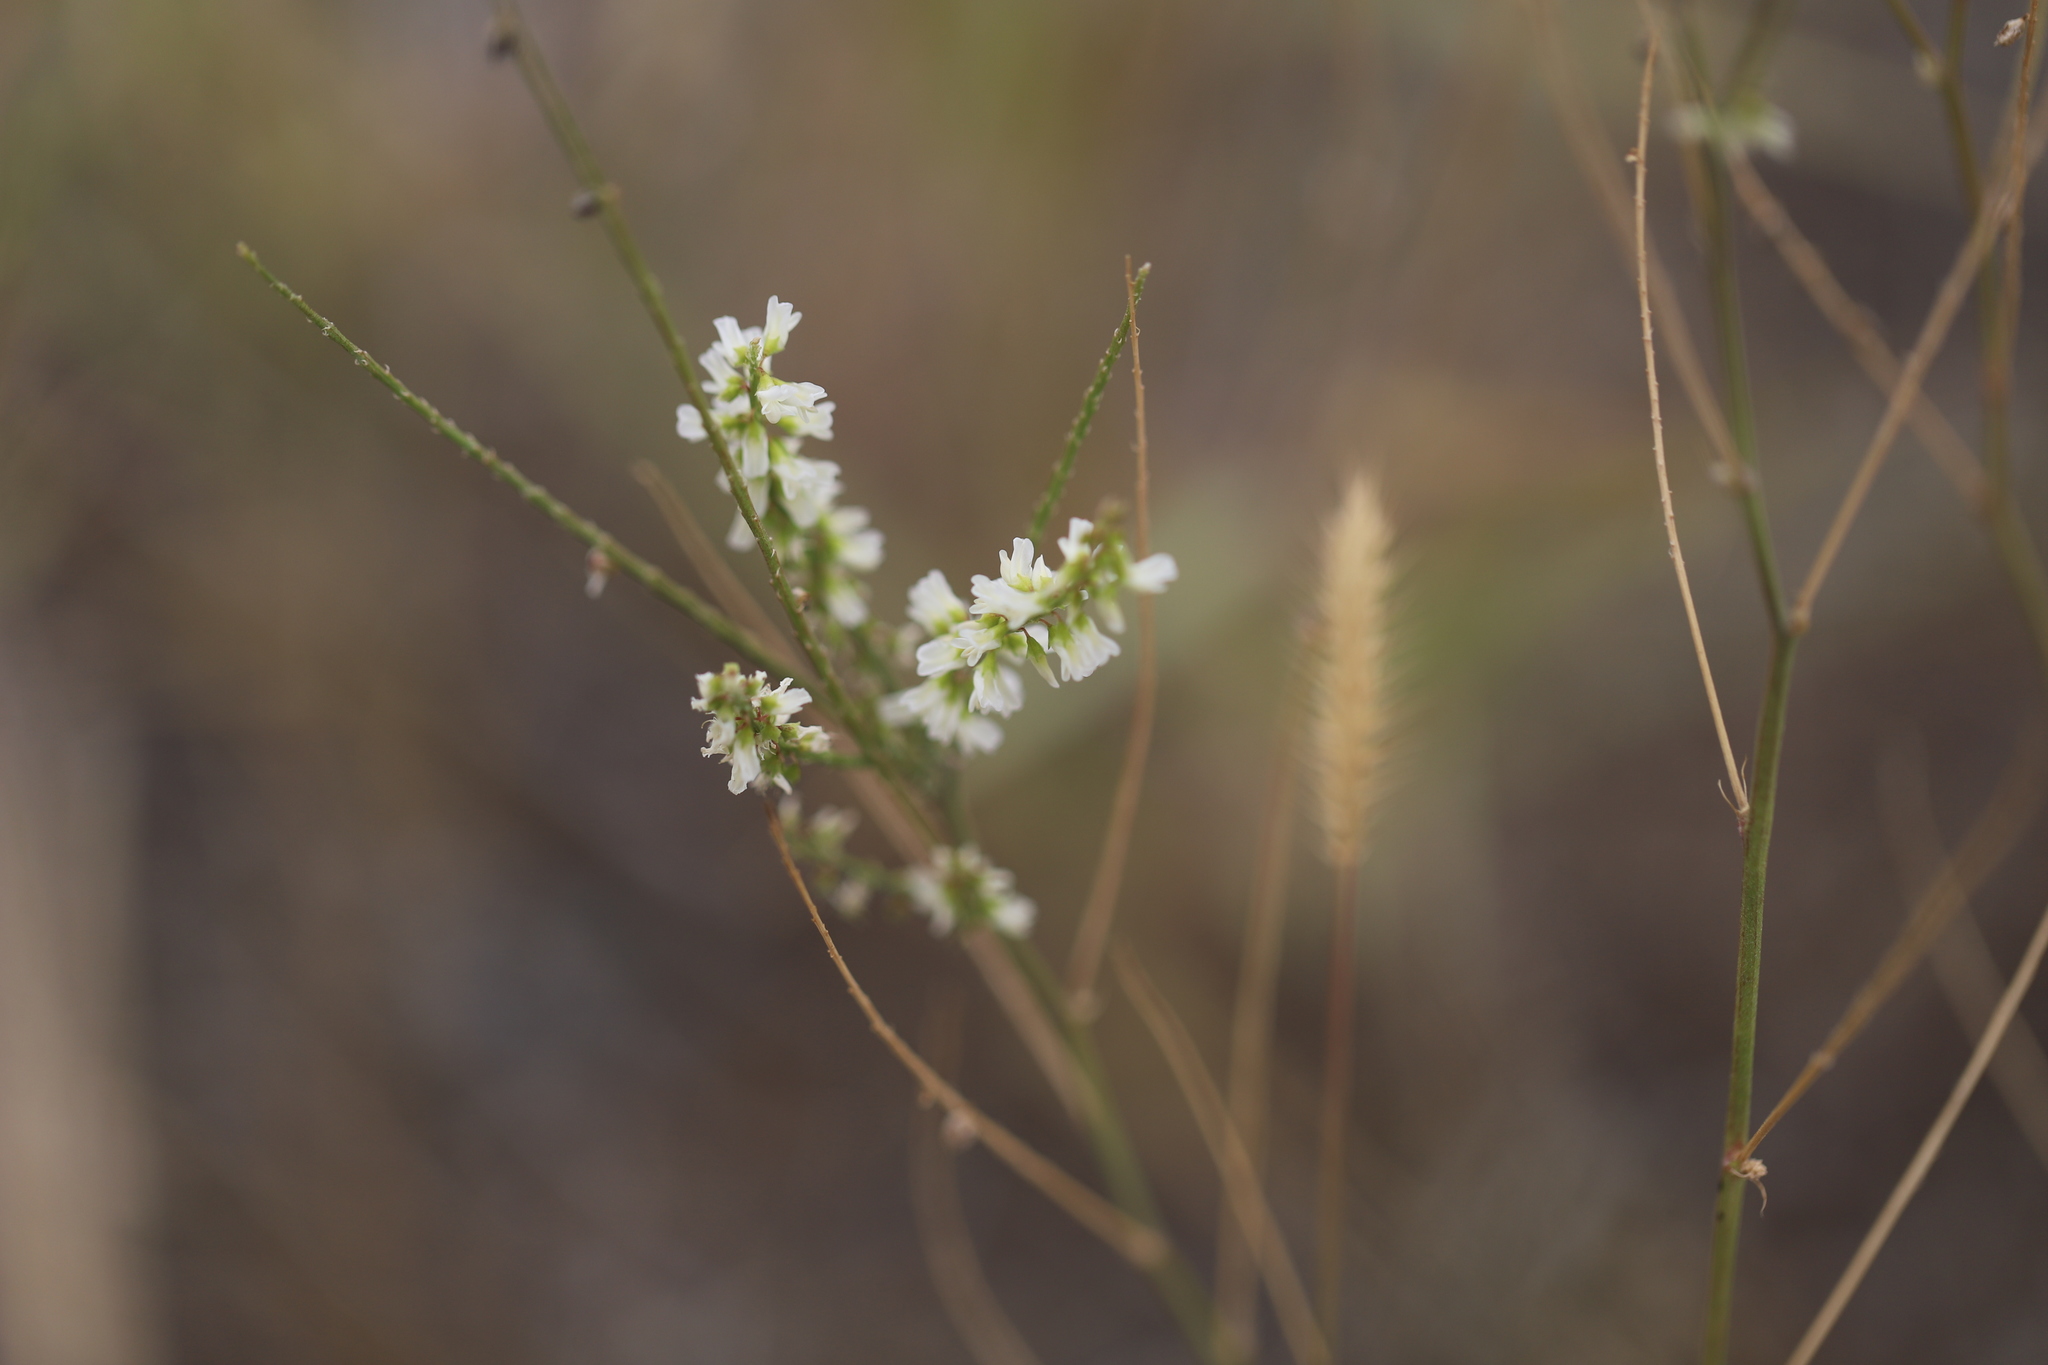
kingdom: Plantae
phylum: Tracheophyta
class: Magnoliopsida
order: Fabales
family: Fabaceae
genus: Melilotus
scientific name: Melilotus albus
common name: White melilot
